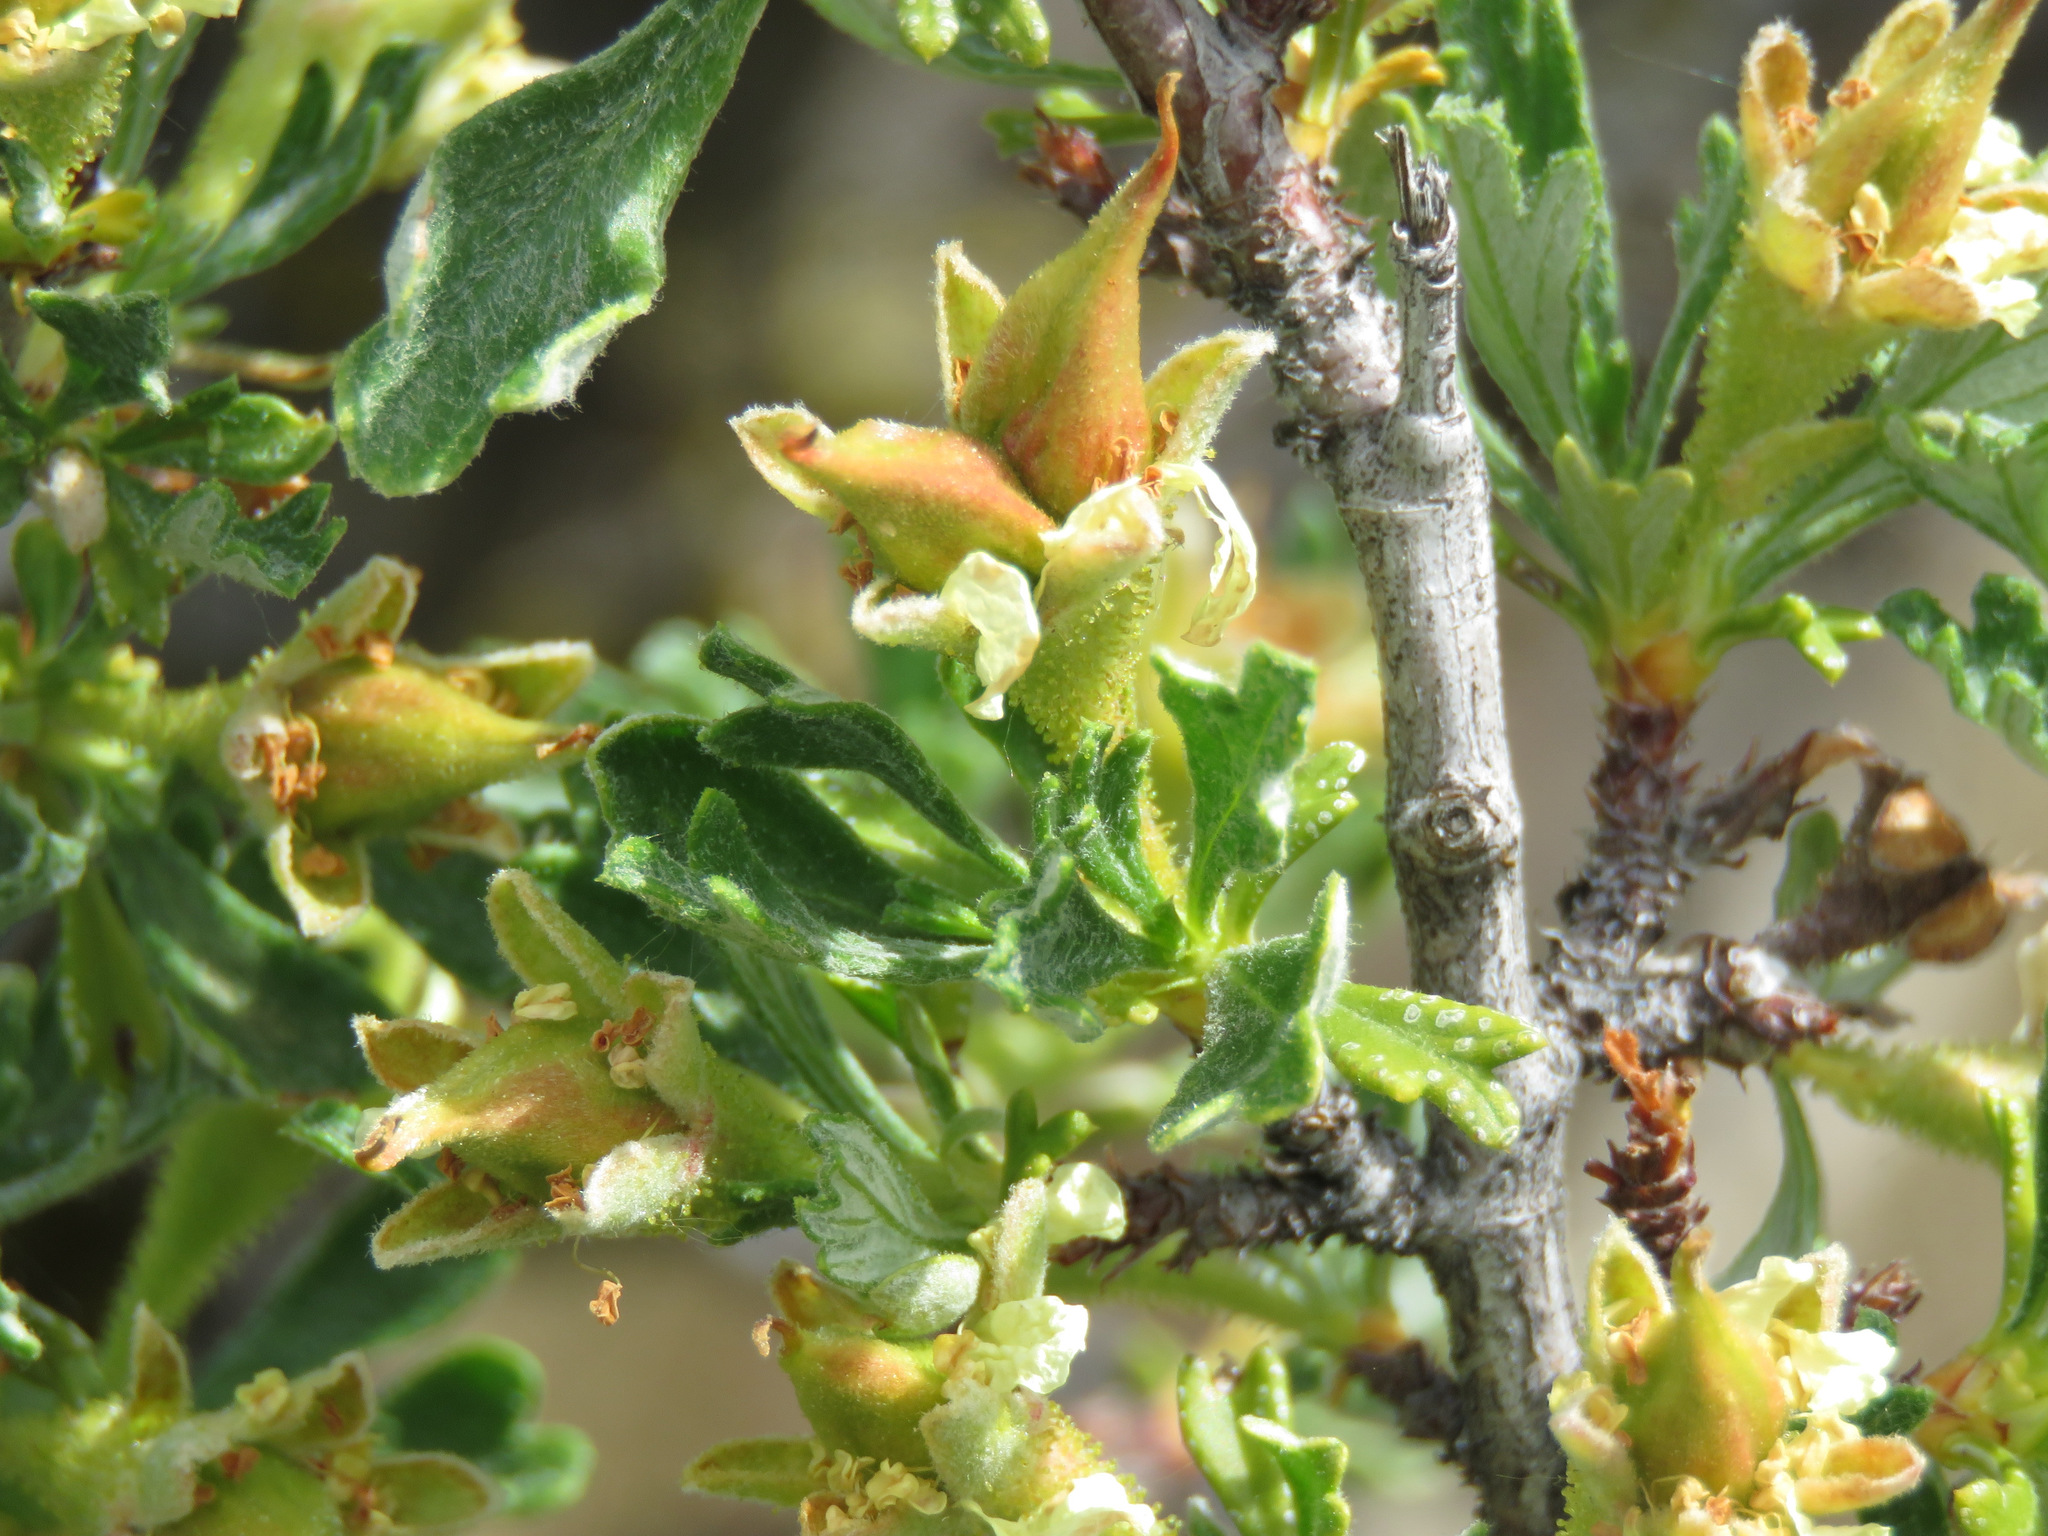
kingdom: Plantae
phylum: Tracheophyta
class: Magnoliopsida
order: Rosales
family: Rosaceae
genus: Purshia
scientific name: Purshia tridentata
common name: Antelope bitterbrush
